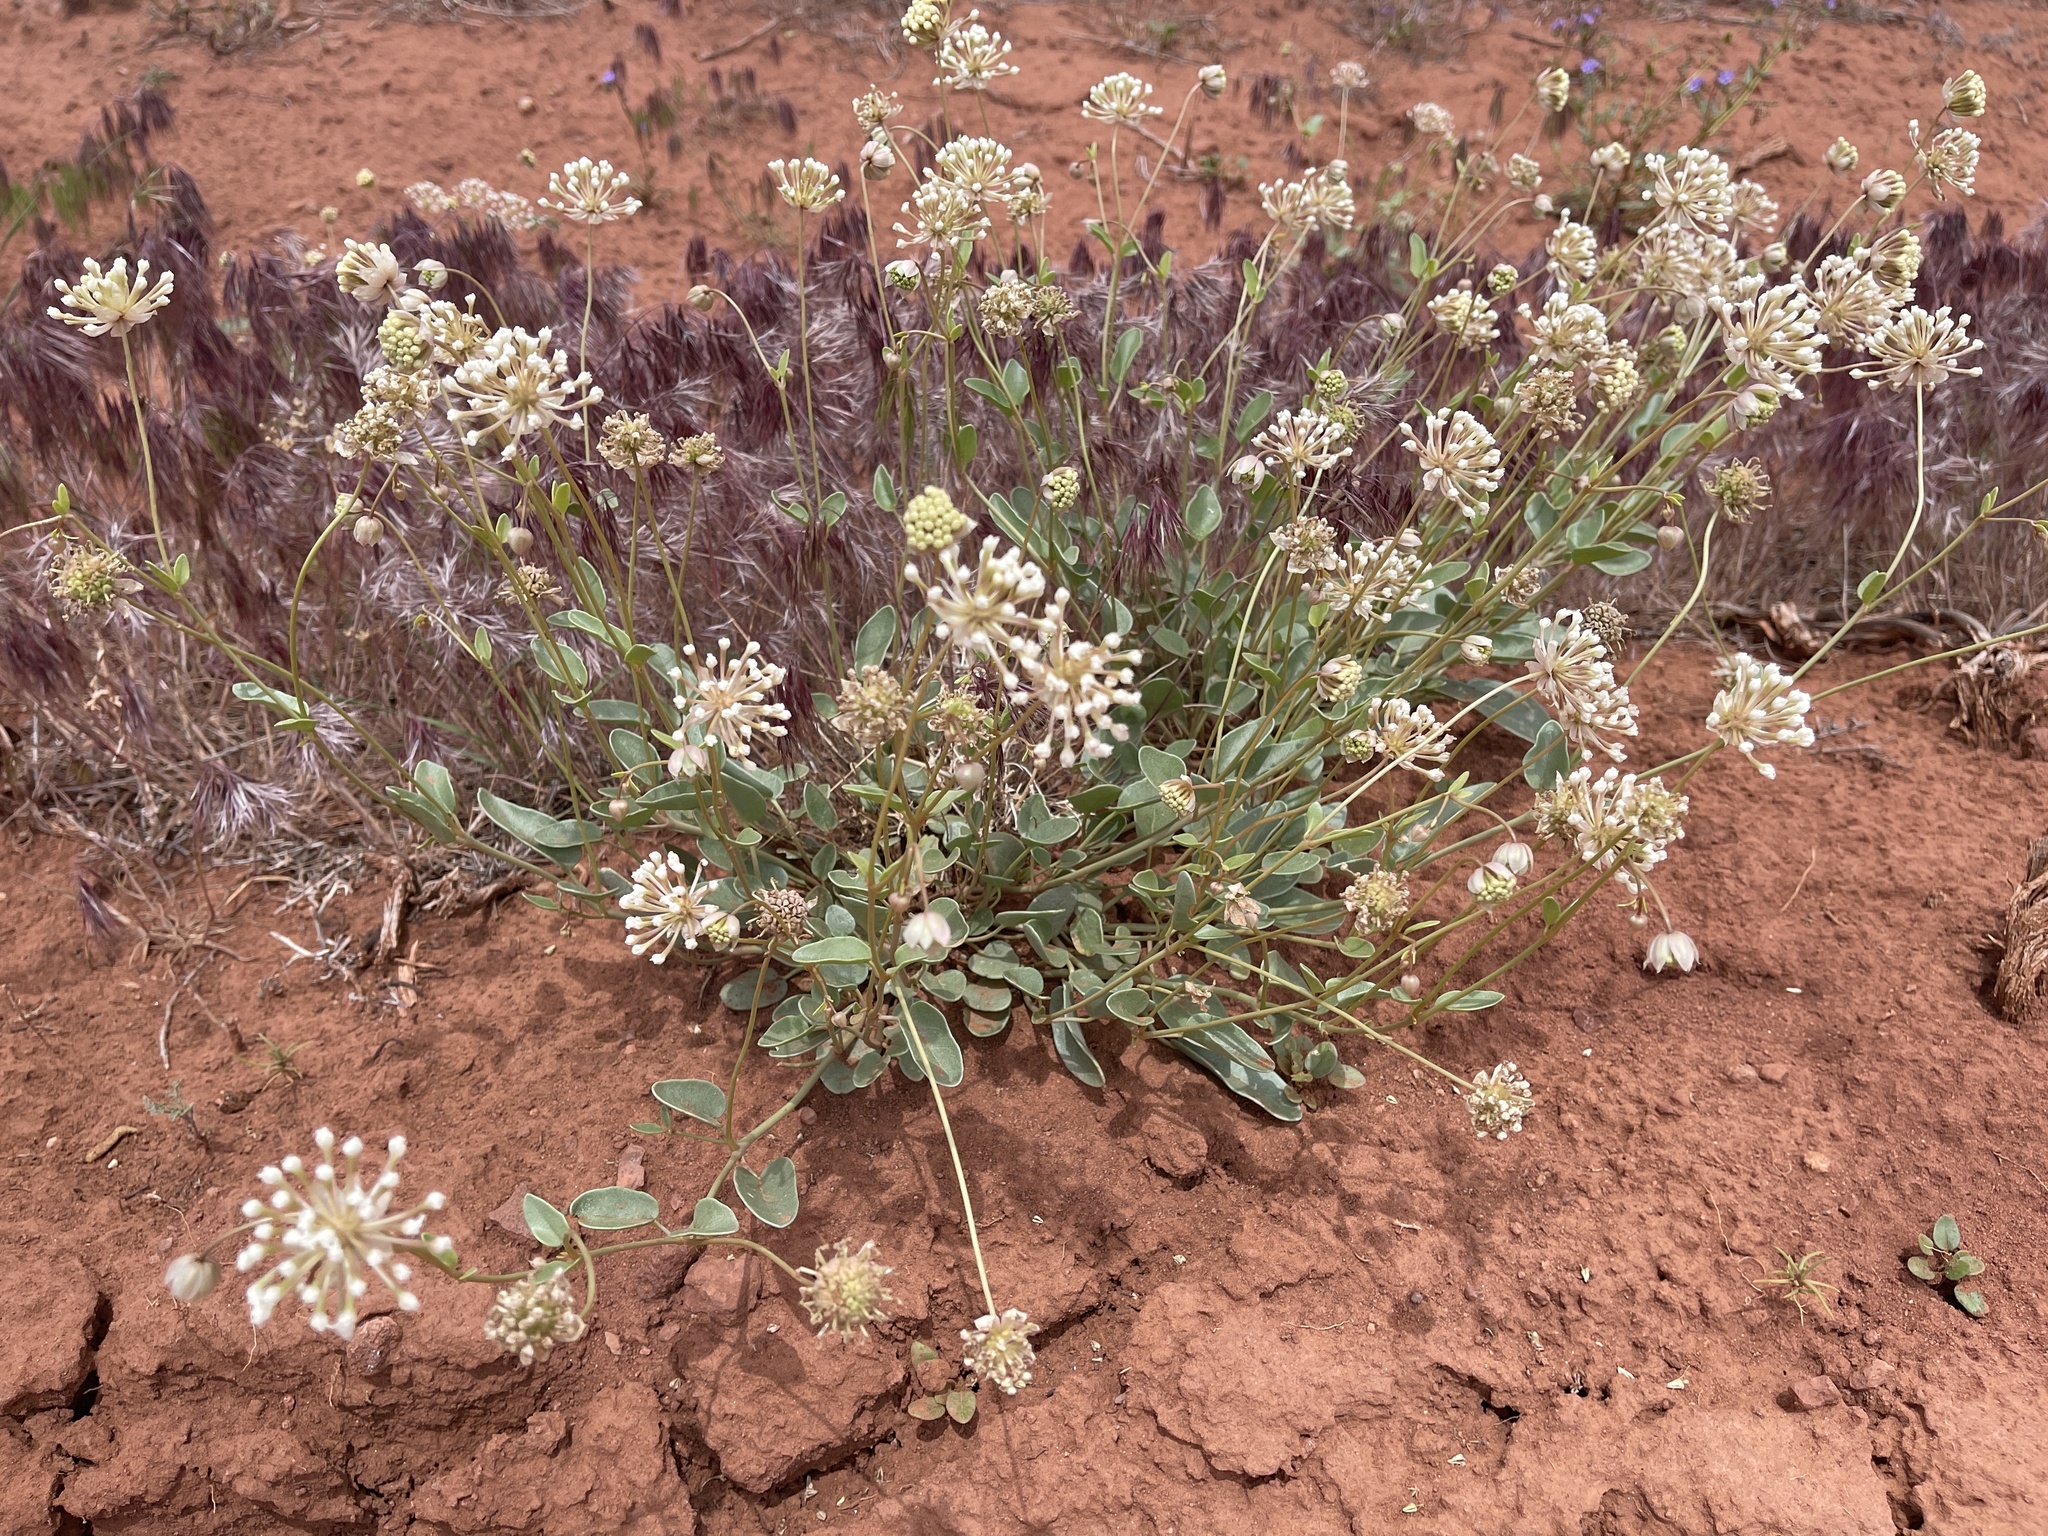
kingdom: Plantae
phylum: Tracheophyta
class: Magnoliopsida
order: Caryophyllales
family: Nyctaginaceae
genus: Abronia
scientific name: Abronia elliptica
